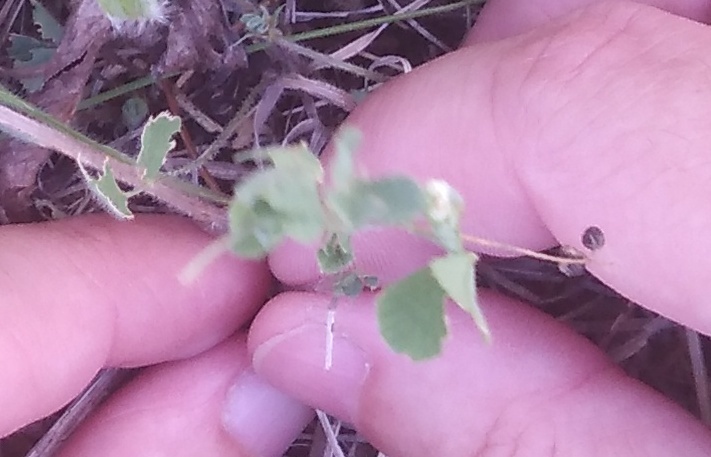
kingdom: Plantae
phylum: Tracheophyta
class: Magnoliopsida
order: Fabales
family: Fabaceae
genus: Medicago
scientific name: Medicago lupulina
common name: Black medick
